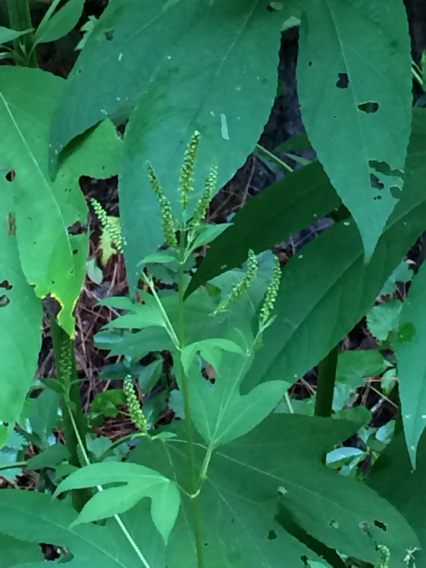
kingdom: Plantae
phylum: Tracheophyta
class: Magnoliopsida
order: Asterales
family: Asteraceae
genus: Ambrosia
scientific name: Ambrosia trifida
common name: Giant ragweed
